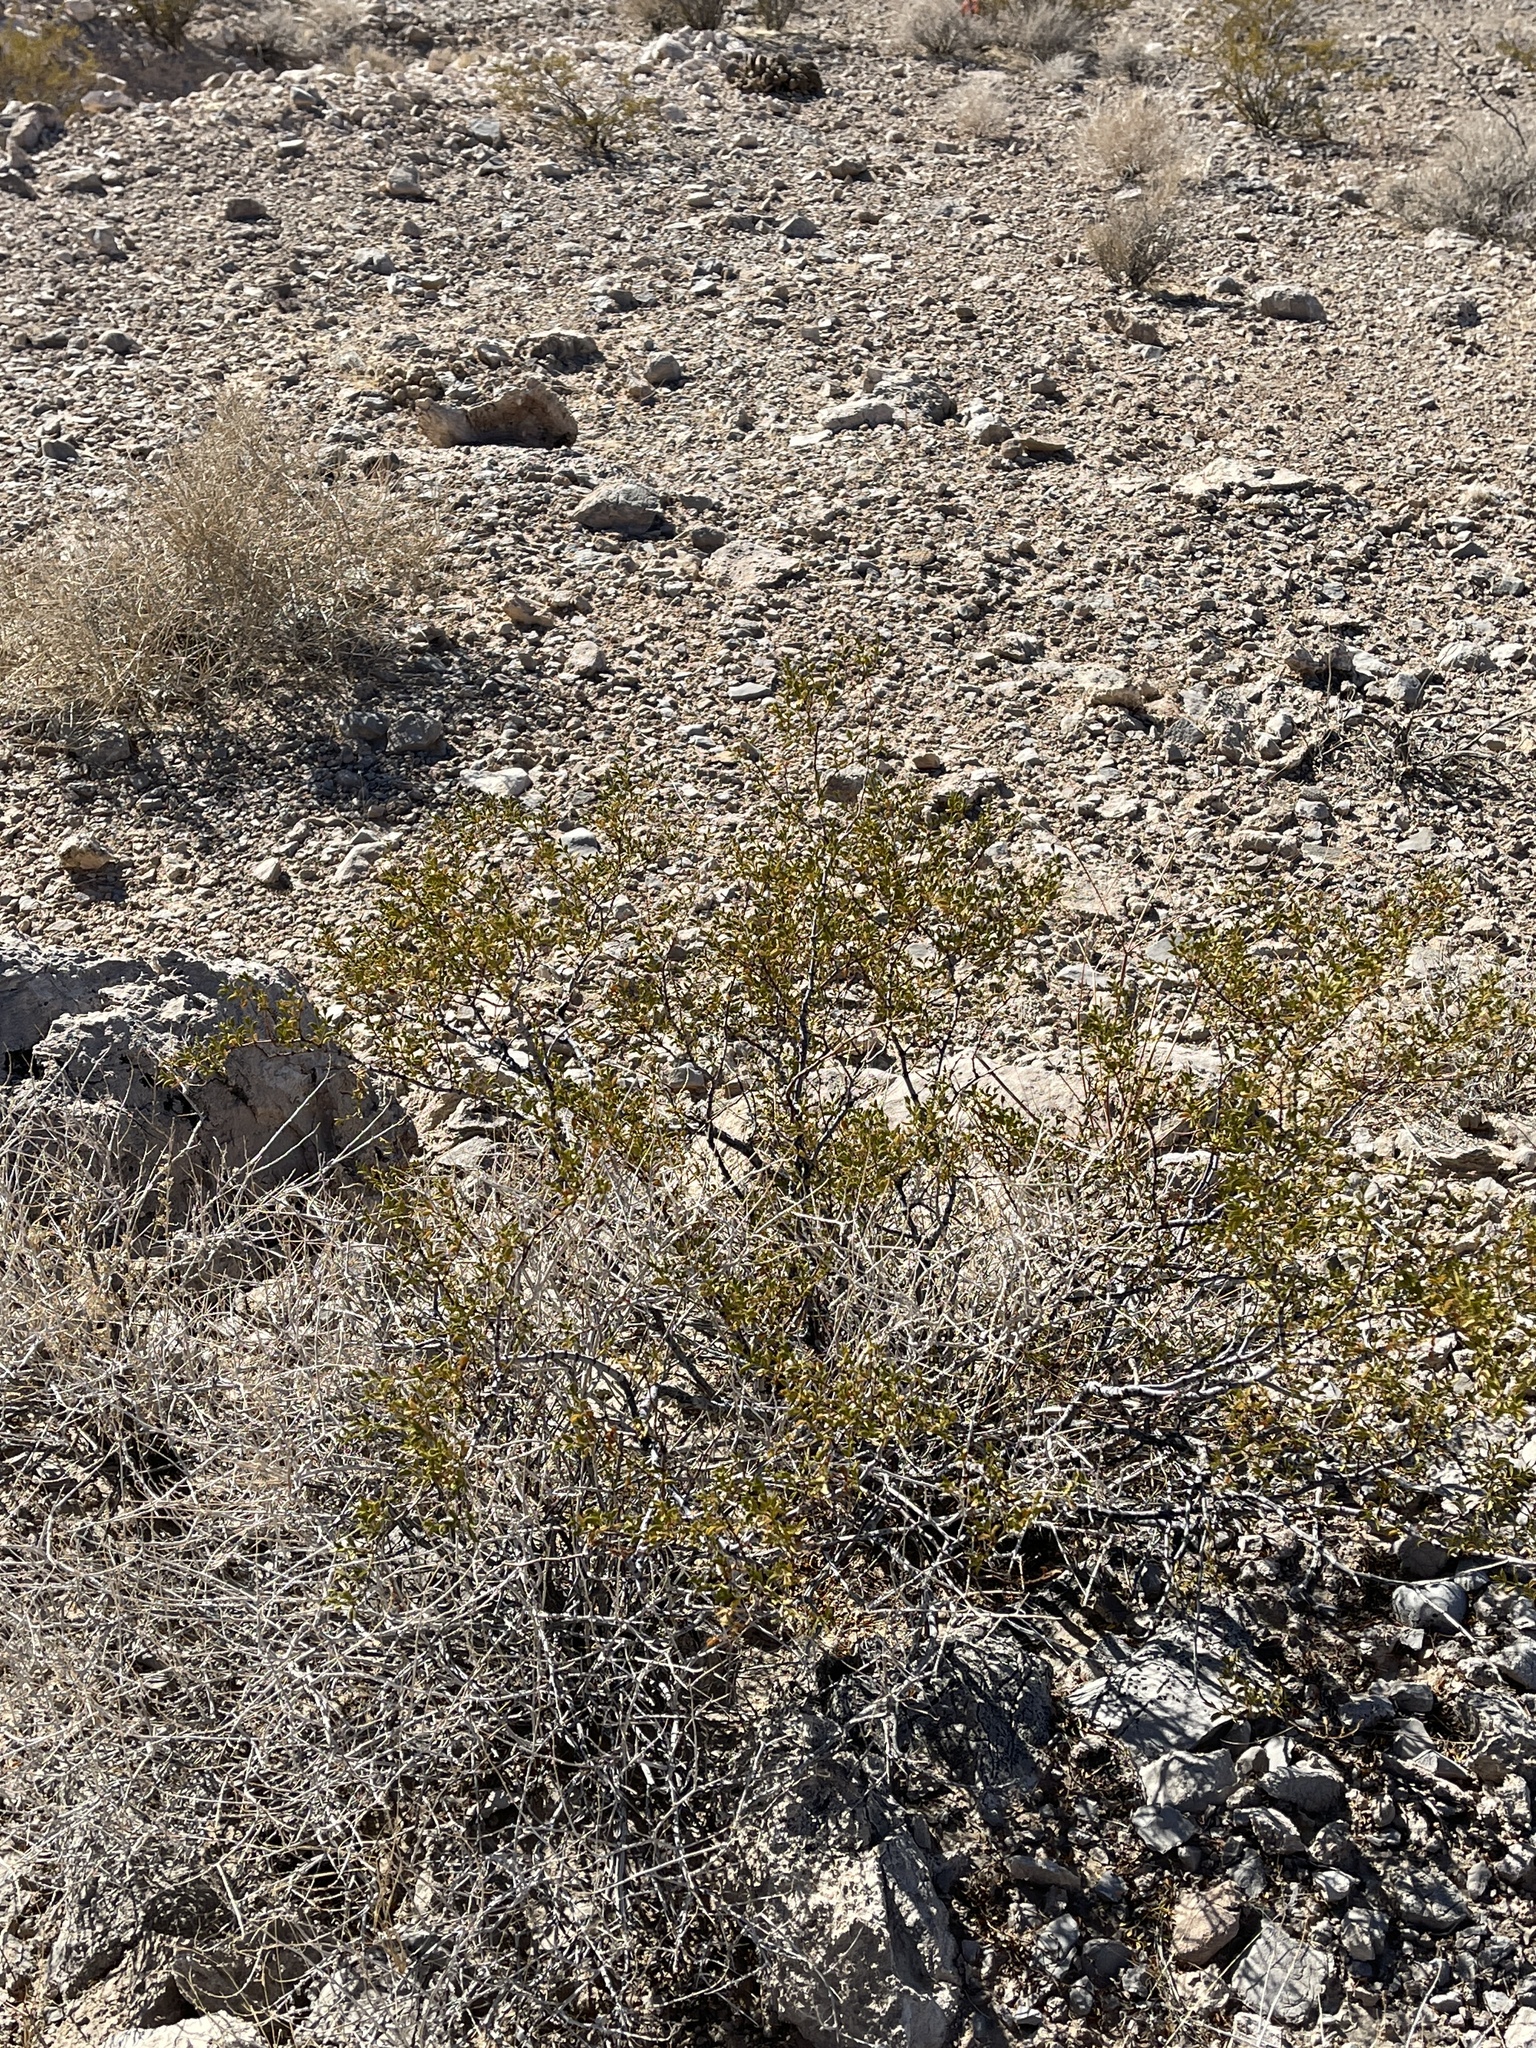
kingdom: Plantae
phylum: Tracheophyta
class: Magnoliopsida
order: Zygophyllales
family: Zygophyllaceae
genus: Larrea
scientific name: Larrea tridentata
